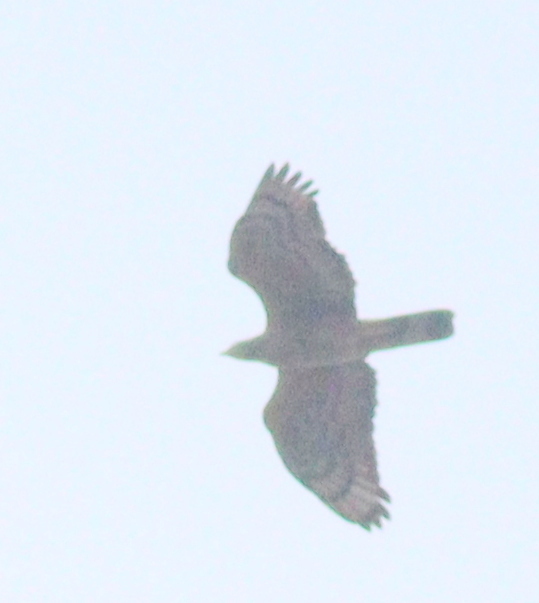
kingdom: Animalia
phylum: Chordata
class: Aves
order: Accipitriformes
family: Accipitridae
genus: Pernis
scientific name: Pernis ptilorhynchus
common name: Crested honey buzzard
